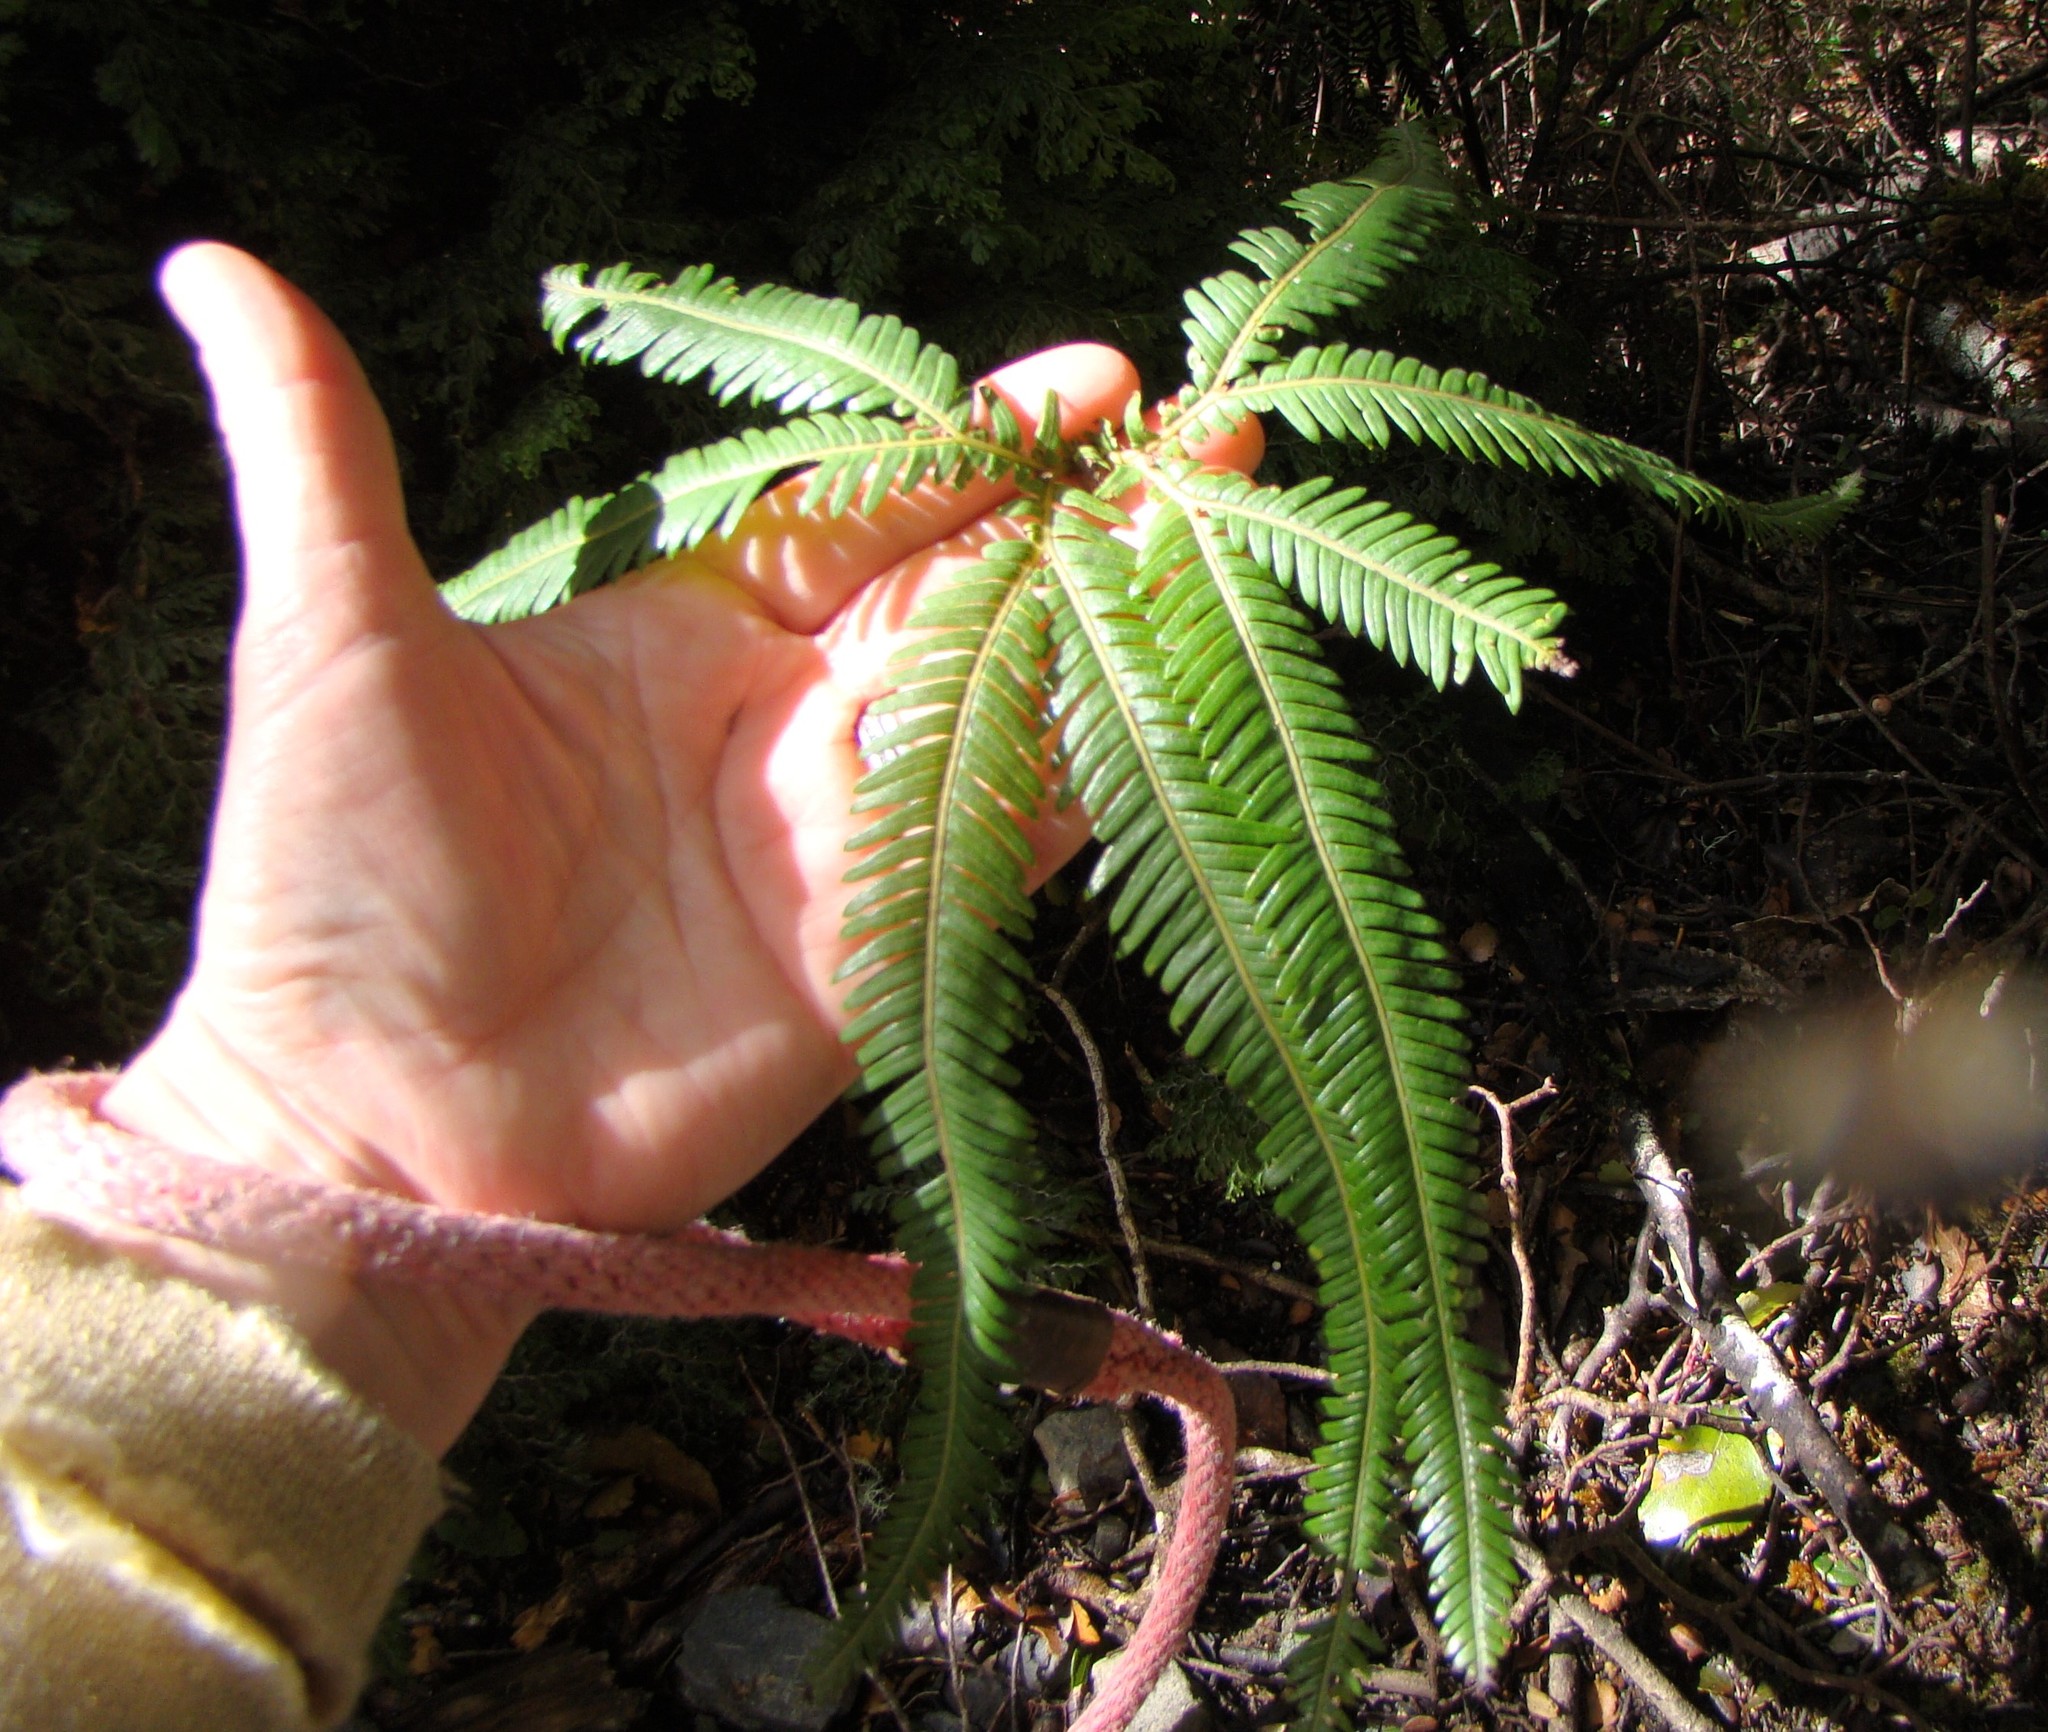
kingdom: Plantae
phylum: Tracheophyta
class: Polypodiopsida
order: Gleicheniales
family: Gleicheniaceae
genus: Sticherus
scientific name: Sticherus cunninghamii
